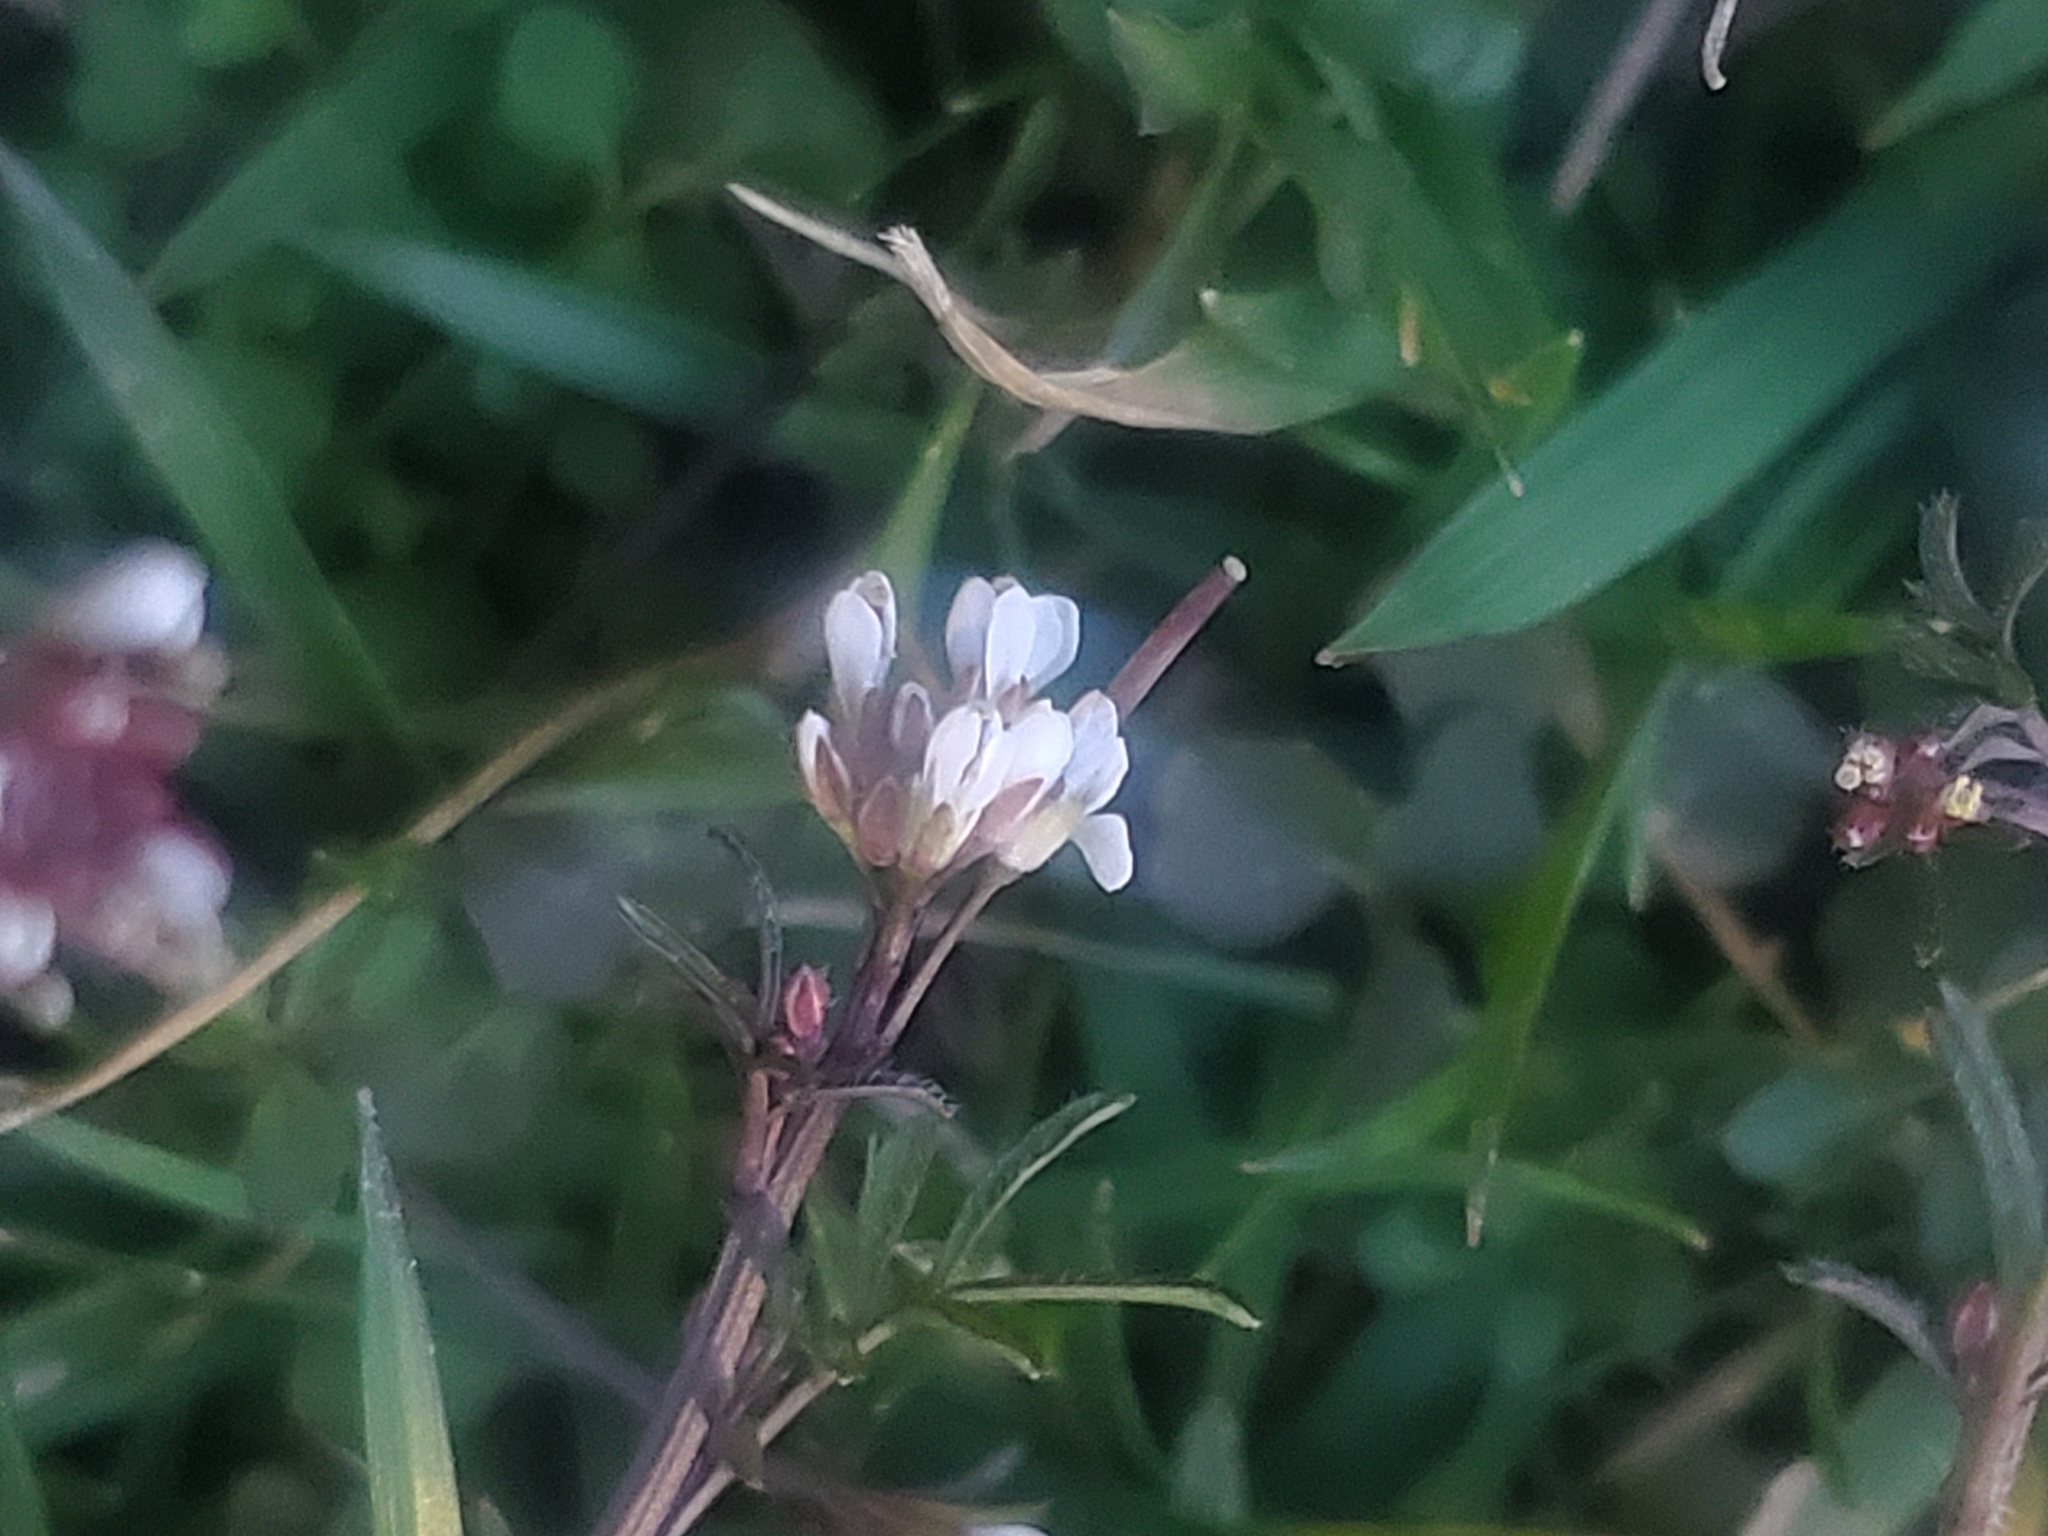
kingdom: Plantae
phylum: Tracheophyta
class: Magnoliopsida
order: Brassicales
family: Brassicaceae
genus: Cardamine
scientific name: Cardamine hirsuta
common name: Hairy bittercress
